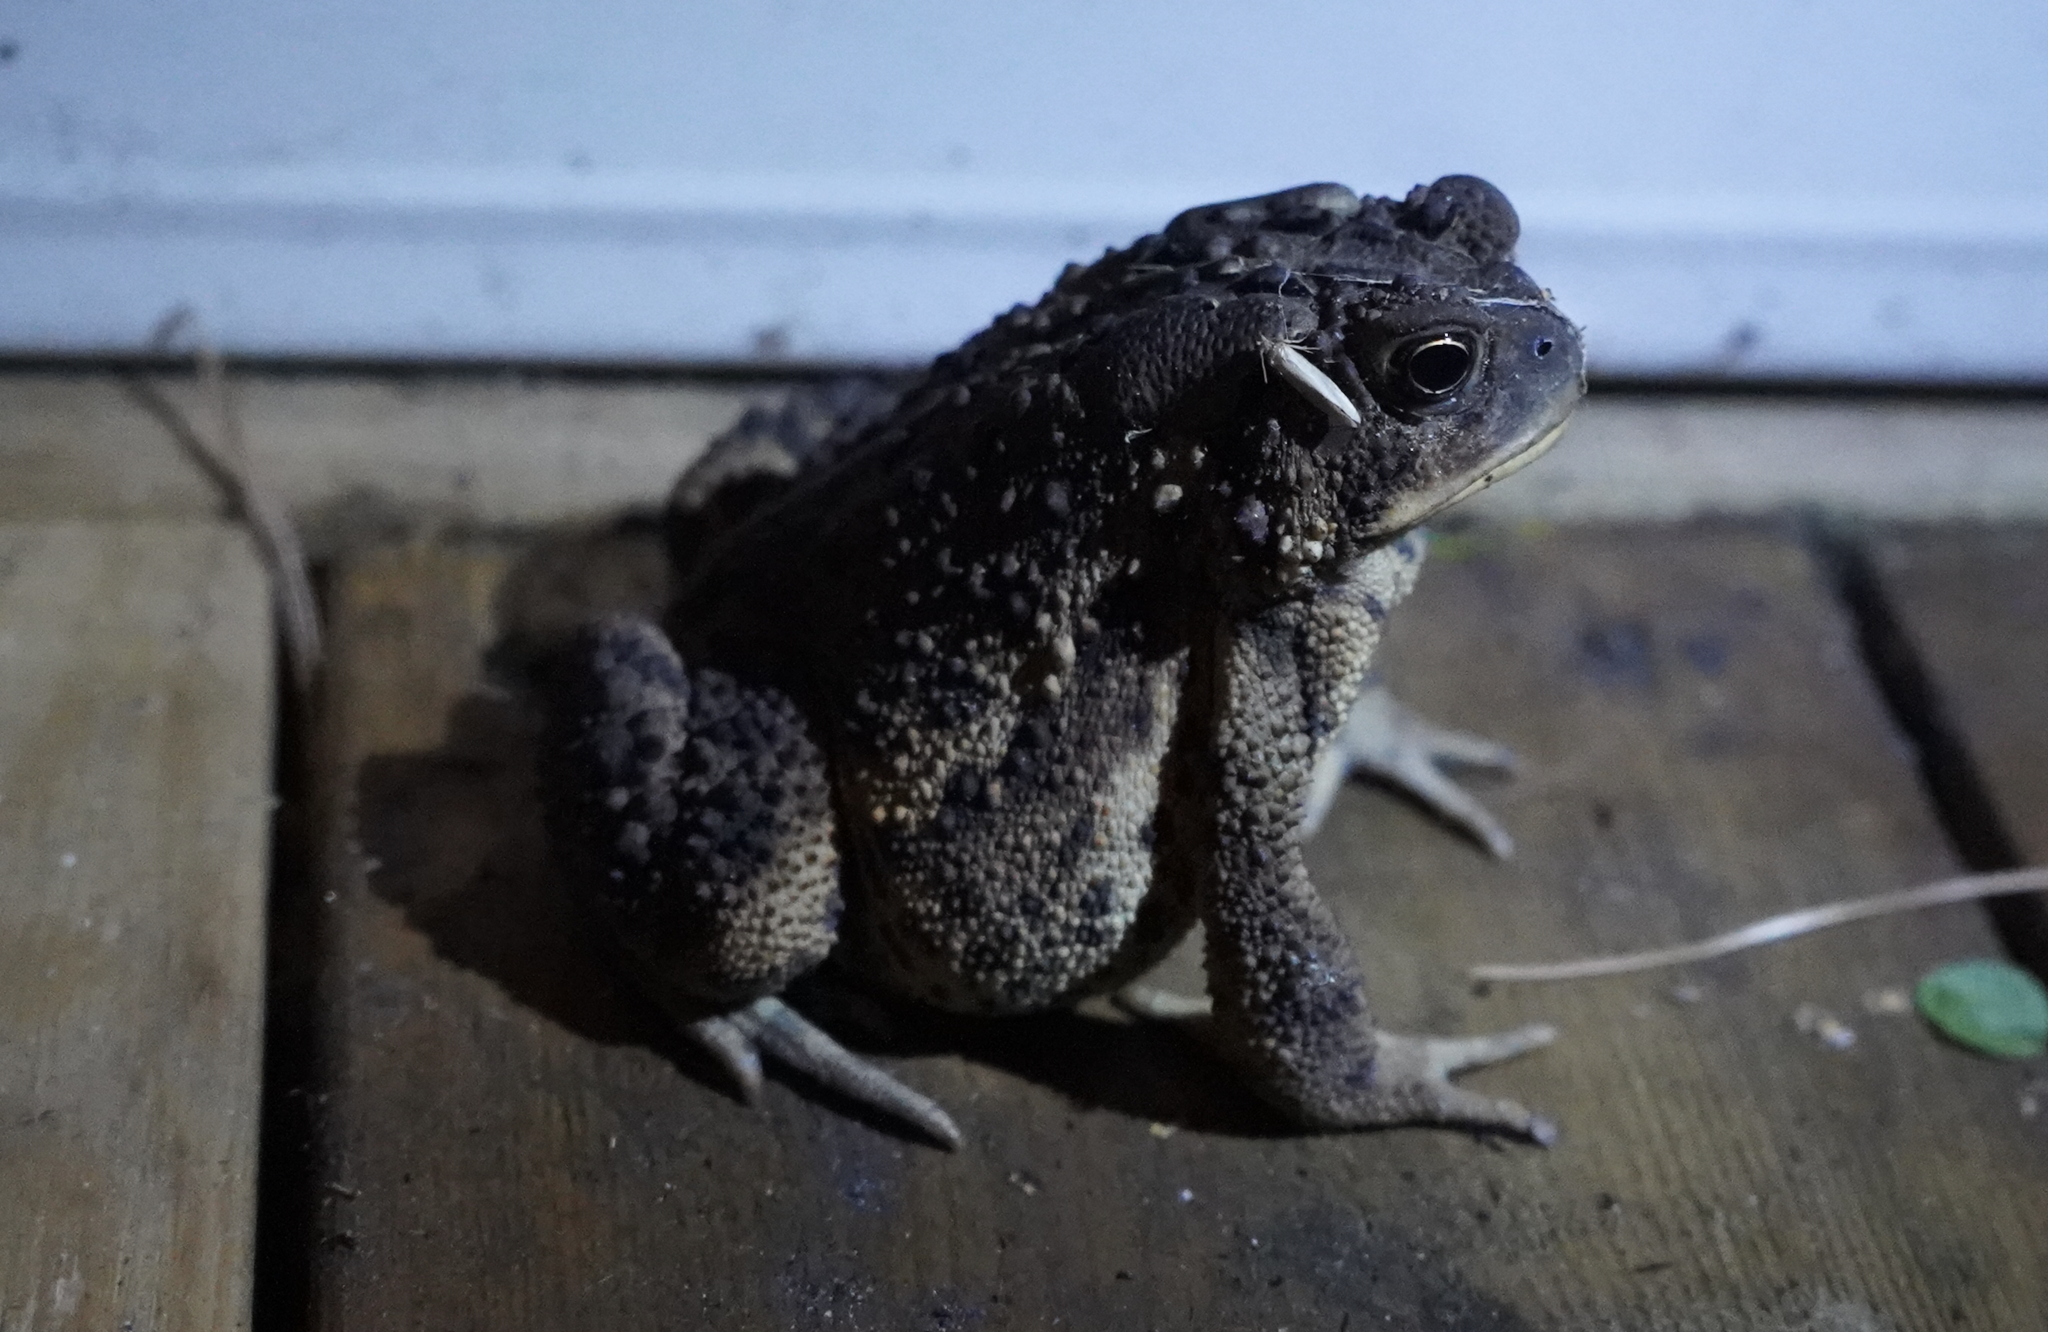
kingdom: Animalia
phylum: Chordata
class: Amphibia
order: Anura
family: Bufonidae
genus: Anaxyrus
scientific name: Anaxyrus americanus
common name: American toad
